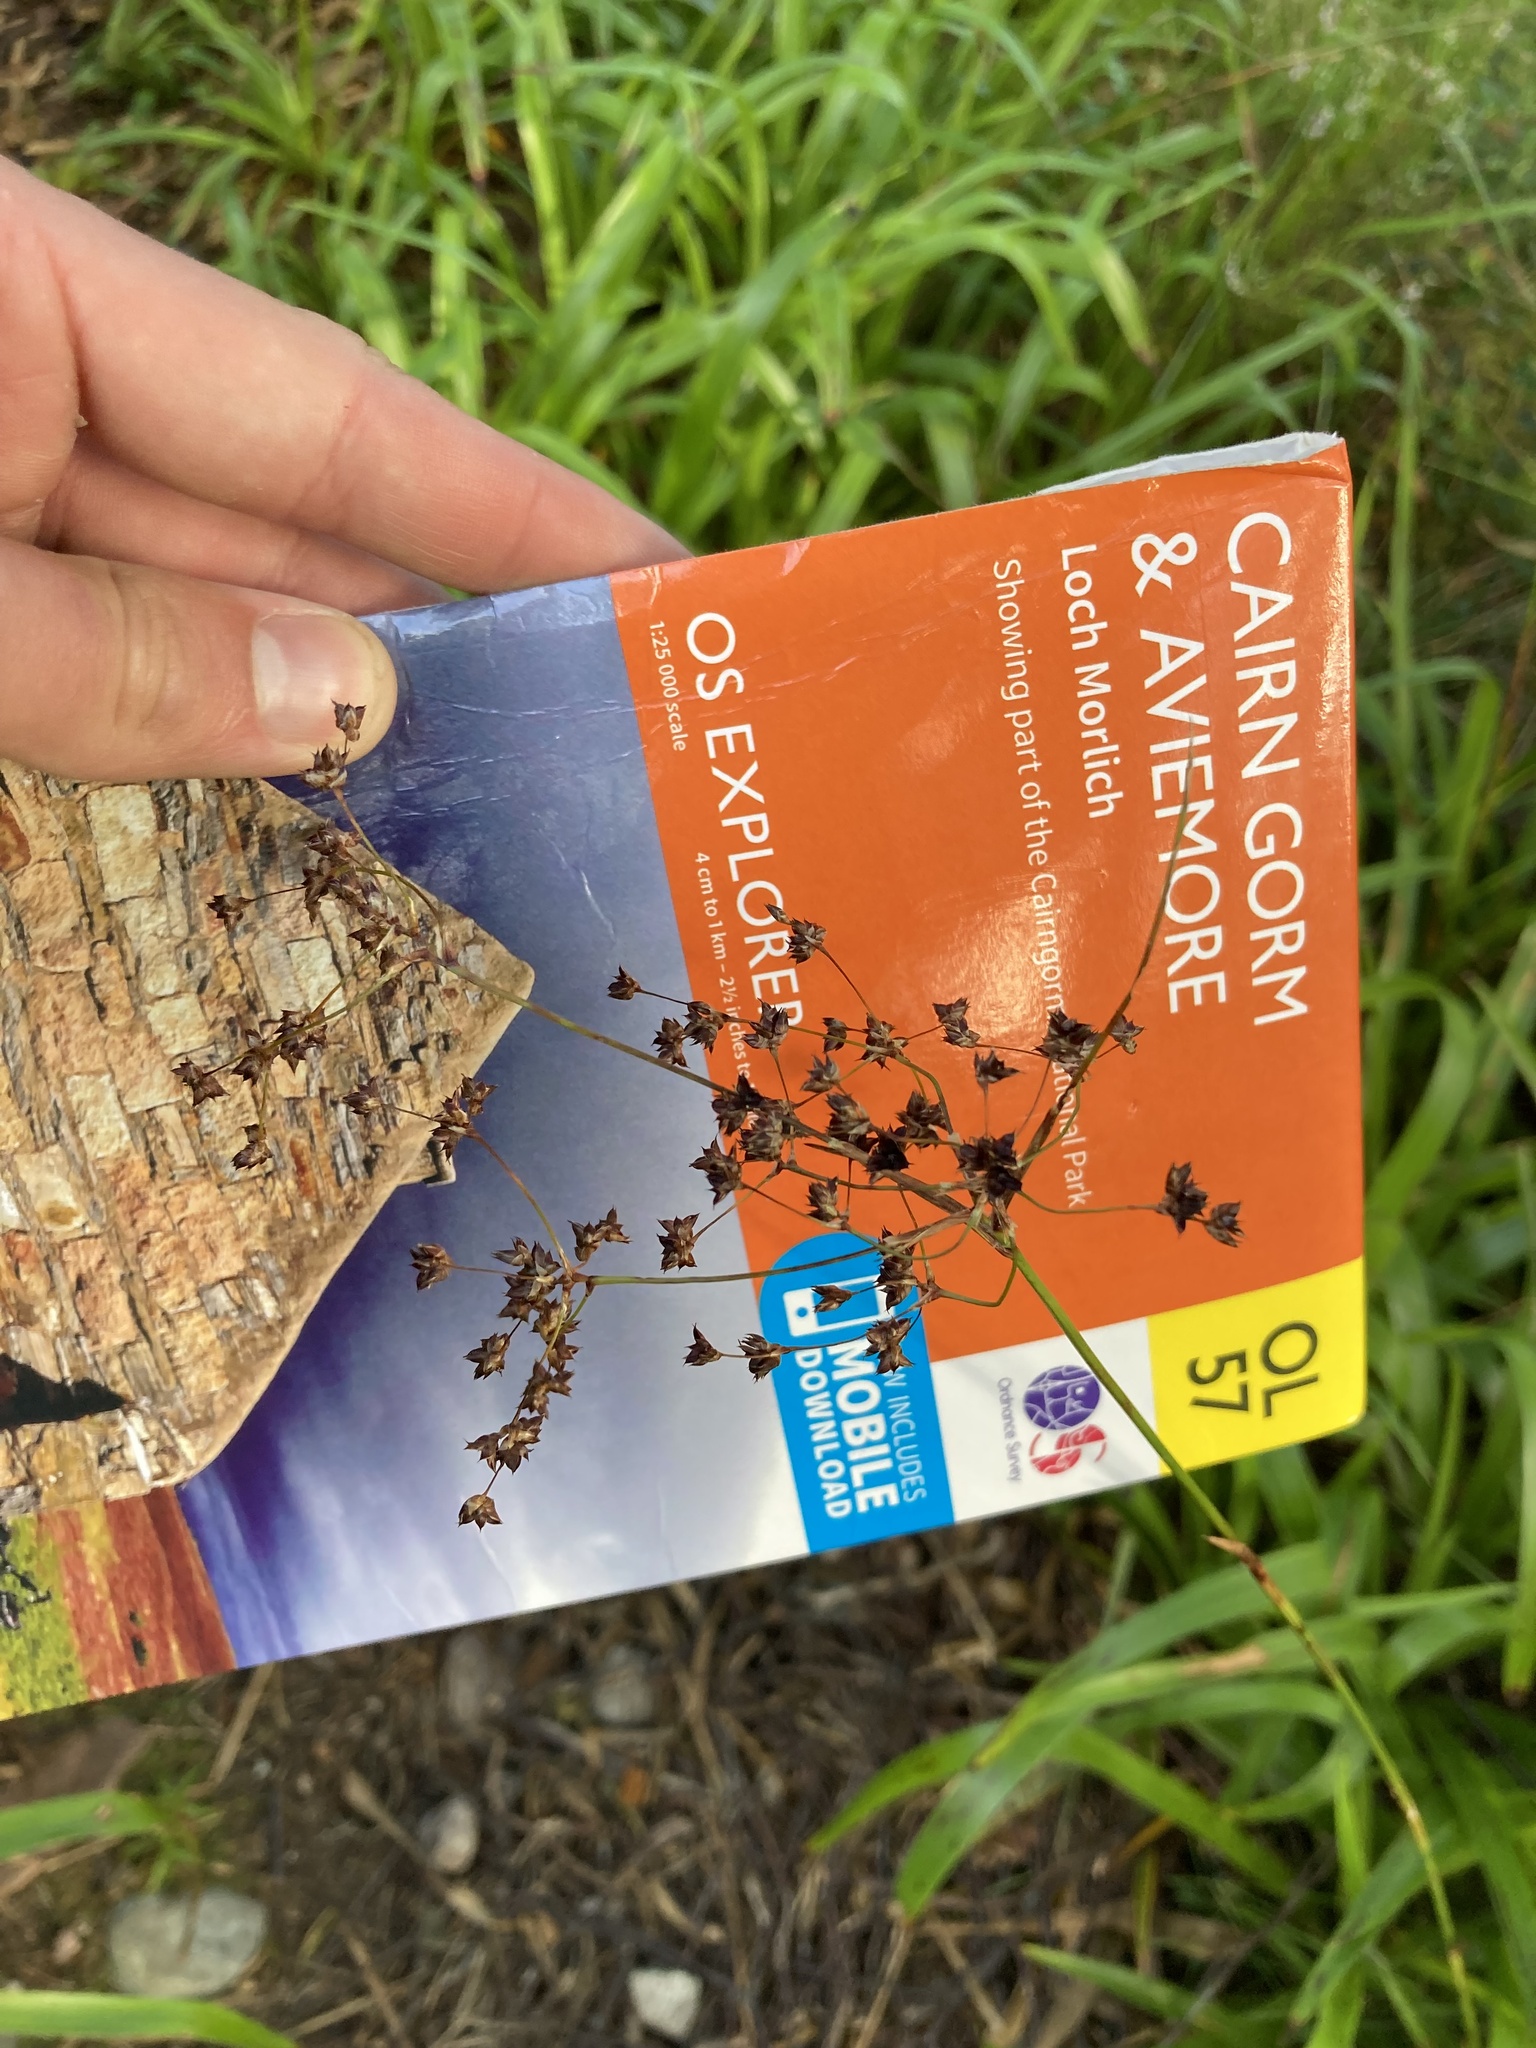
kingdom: Plantae
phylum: Tracheophyta
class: Liliopsida
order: Poales
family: Juncaceae
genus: Luzula
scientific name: Luzula sylvatica
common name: Great wood-rush
